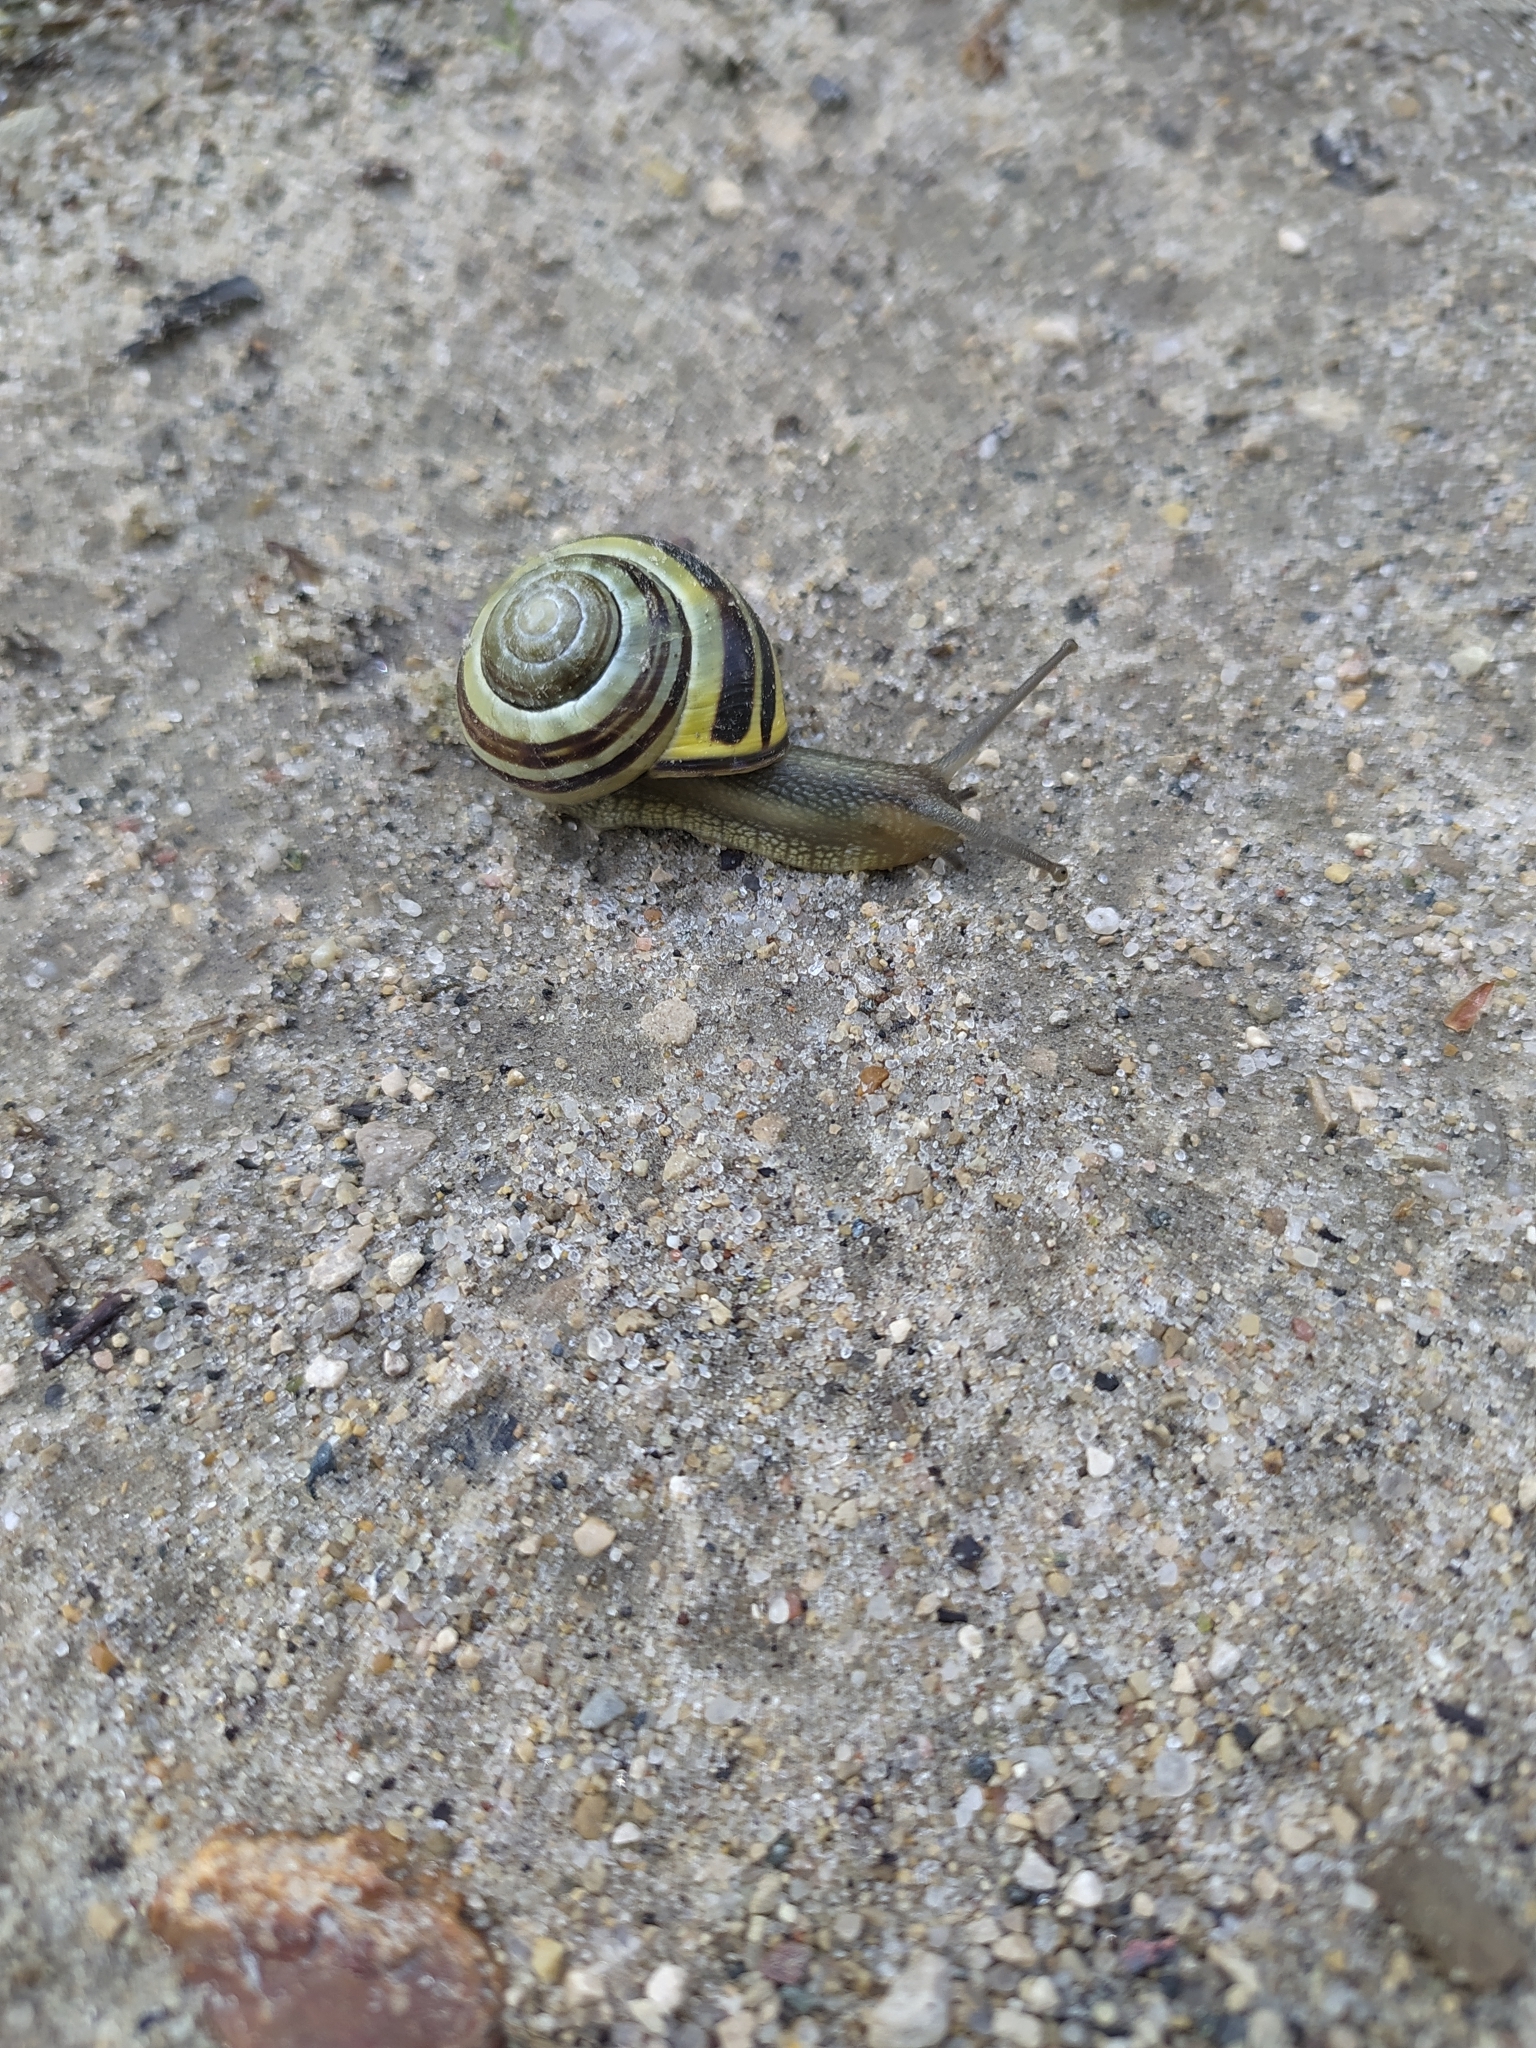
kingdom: Animalia
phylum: Mollusca
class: Gastropoda
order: Stylommatophora
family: Helicidae
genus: Cepaea
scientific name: Cepaea nemoralis
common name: Grovesnail
